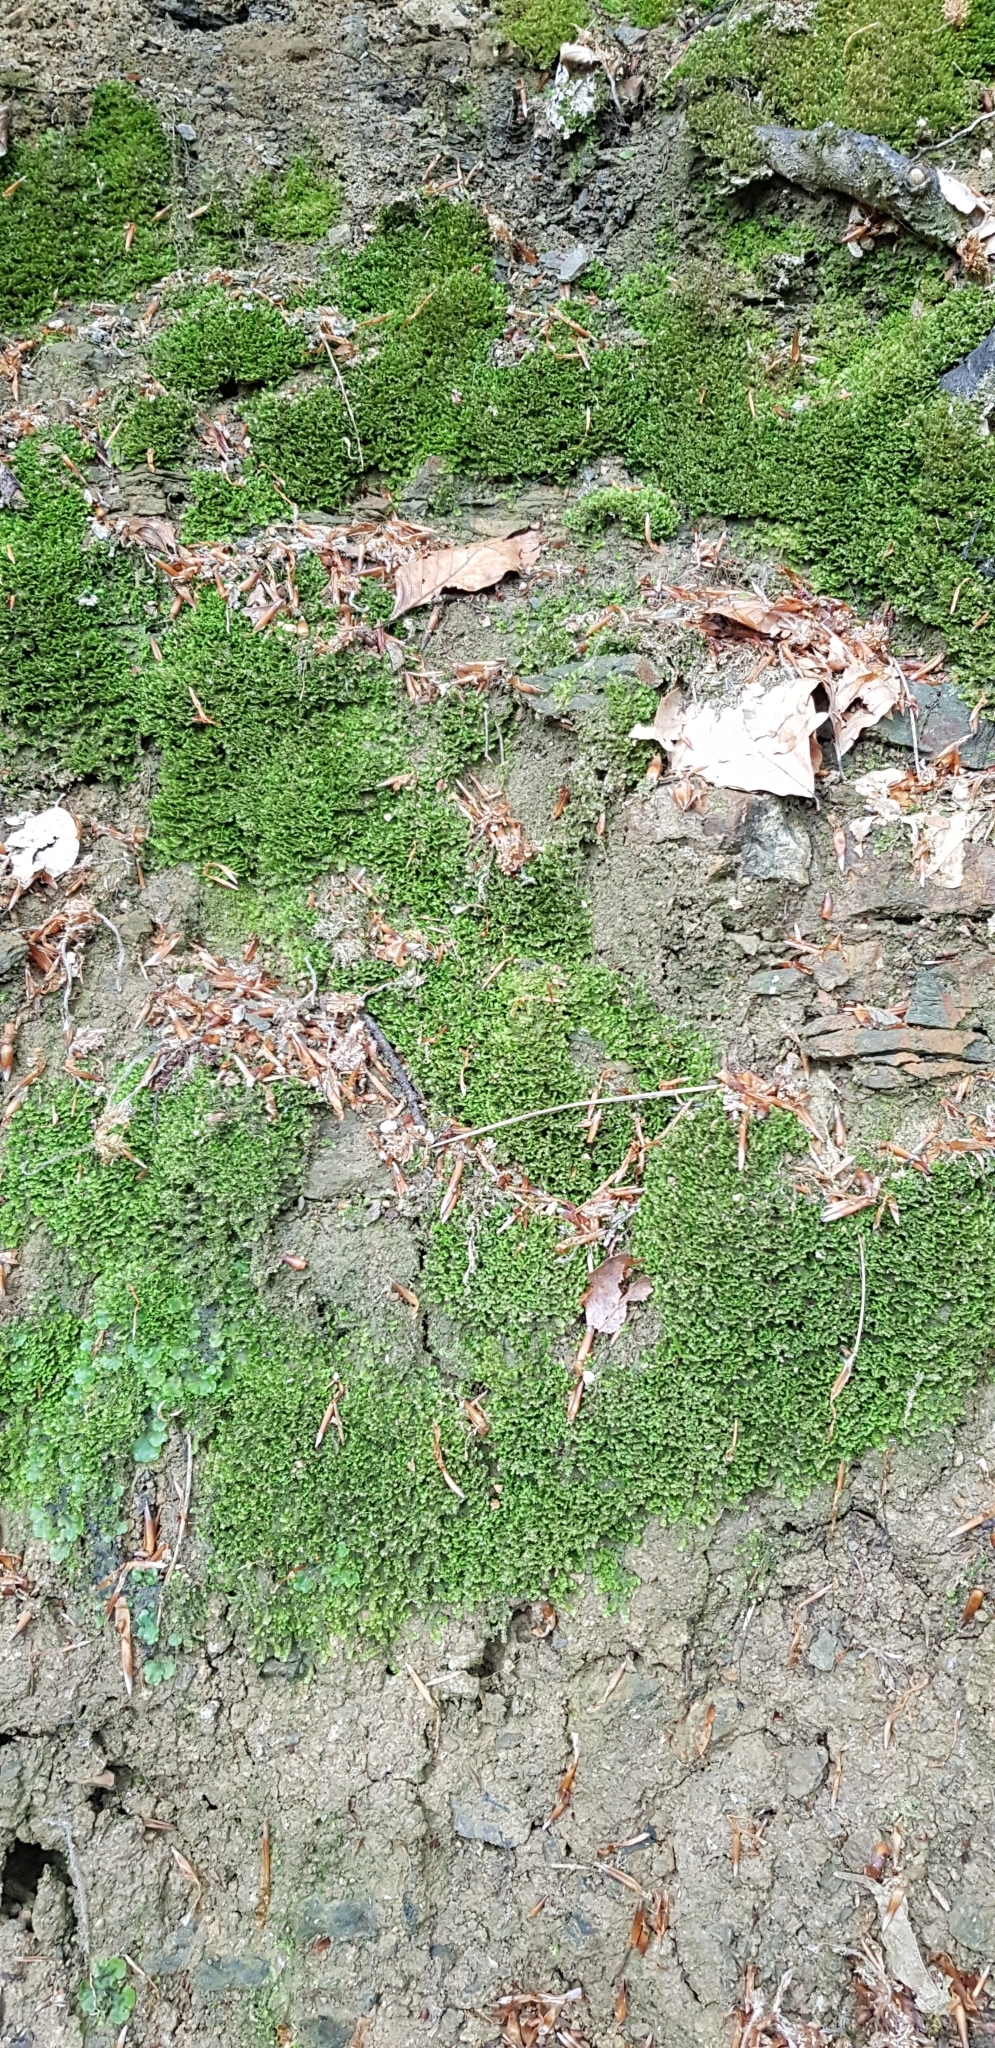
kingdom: Plantae
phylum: Marchantiophyta
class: Jungermanniopsida
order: Jungermanniales
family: Scapaniaceae
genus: Diplophyllum
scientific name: Diplophyllum albicans
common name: White earwort
